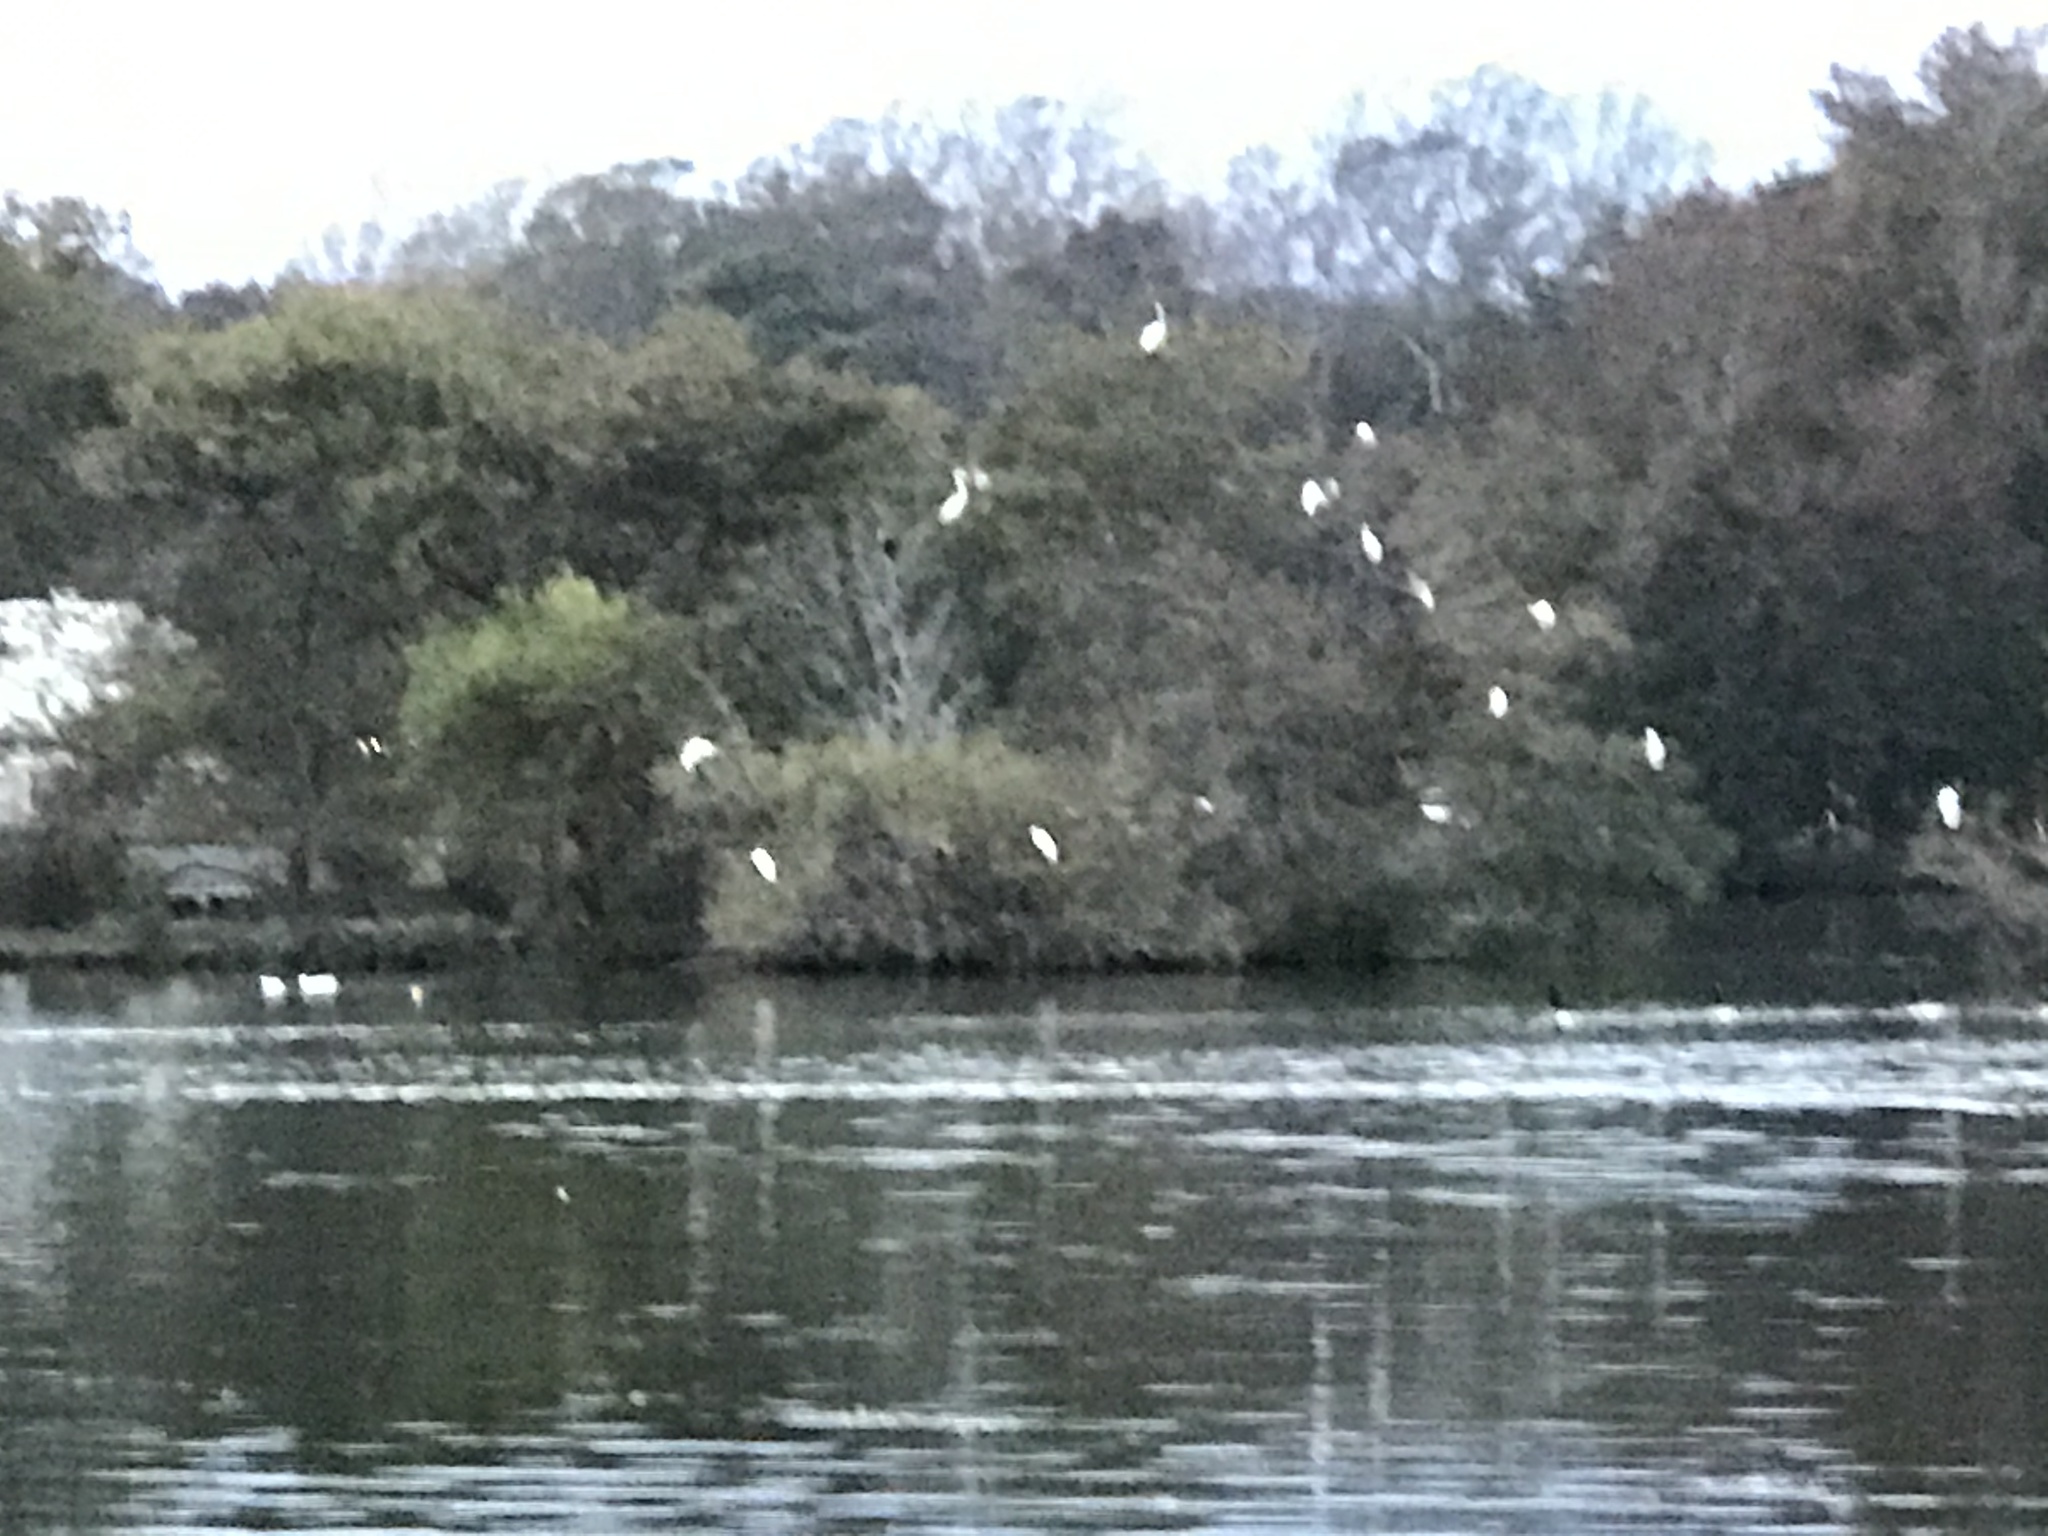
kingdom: Animalia
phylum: Chordata
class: Aves
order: Pelecaniformes
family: Ardeidae
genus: Ardea
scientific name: Ardea alba
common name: Great egret
